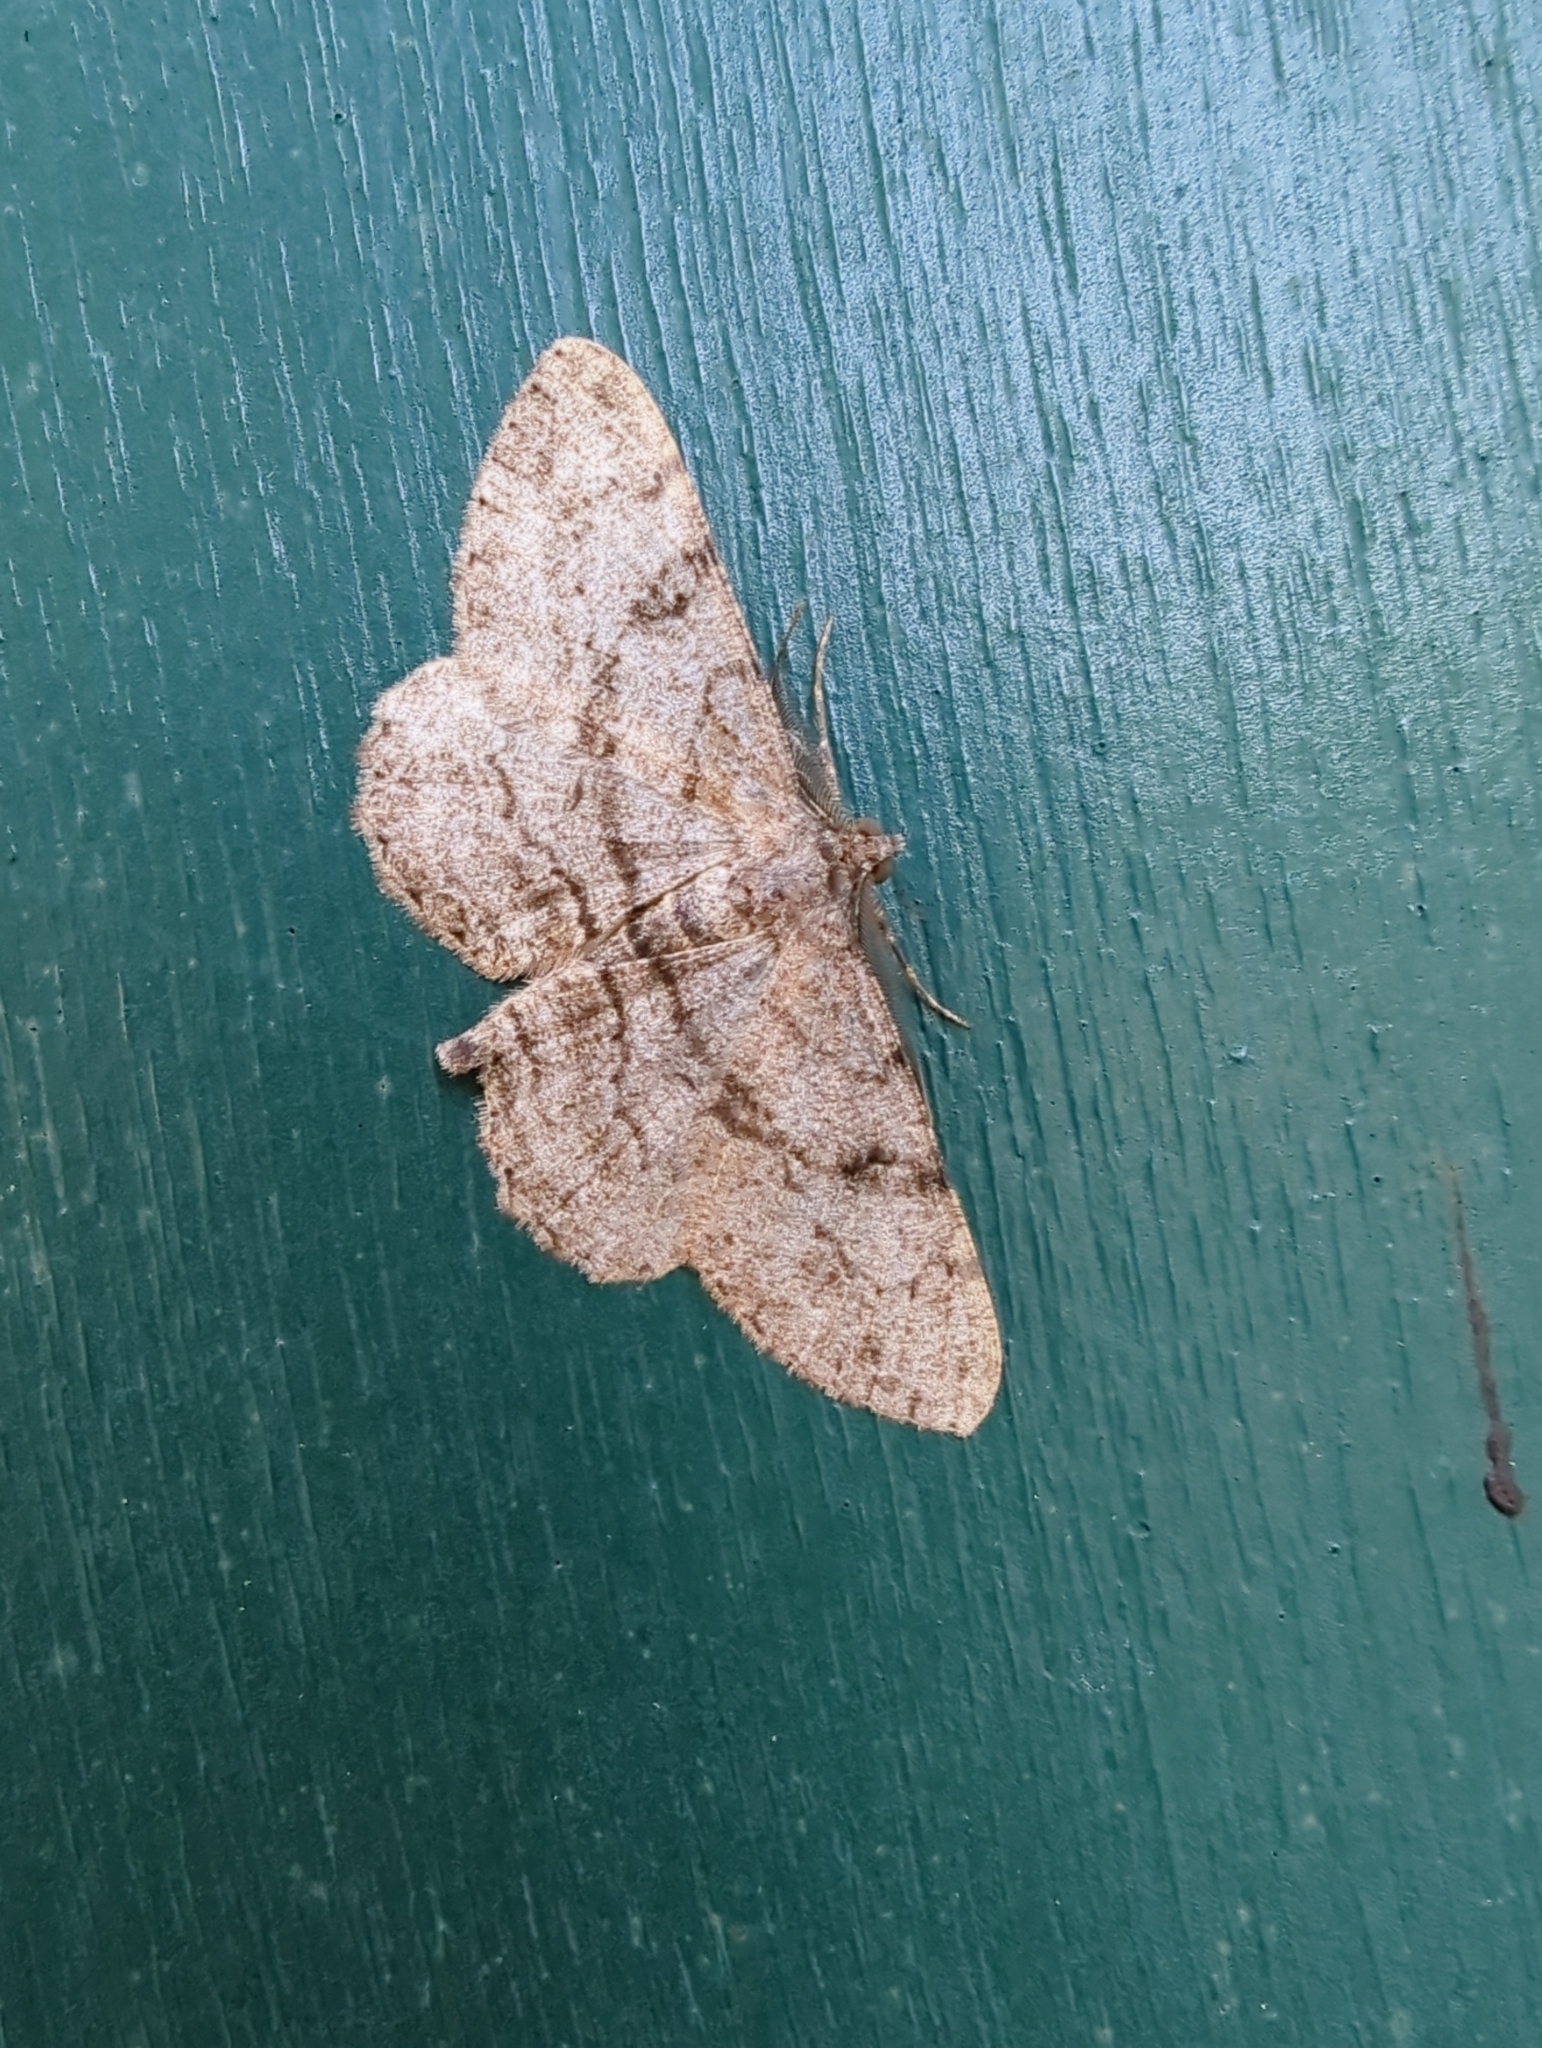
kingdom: Animalia
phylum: Arthropoda
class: Insecta
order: Lepidoptera
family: Geometridae
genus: Peribatodes
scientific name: Peribatodes rhomboidaria
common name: Willow beauty
